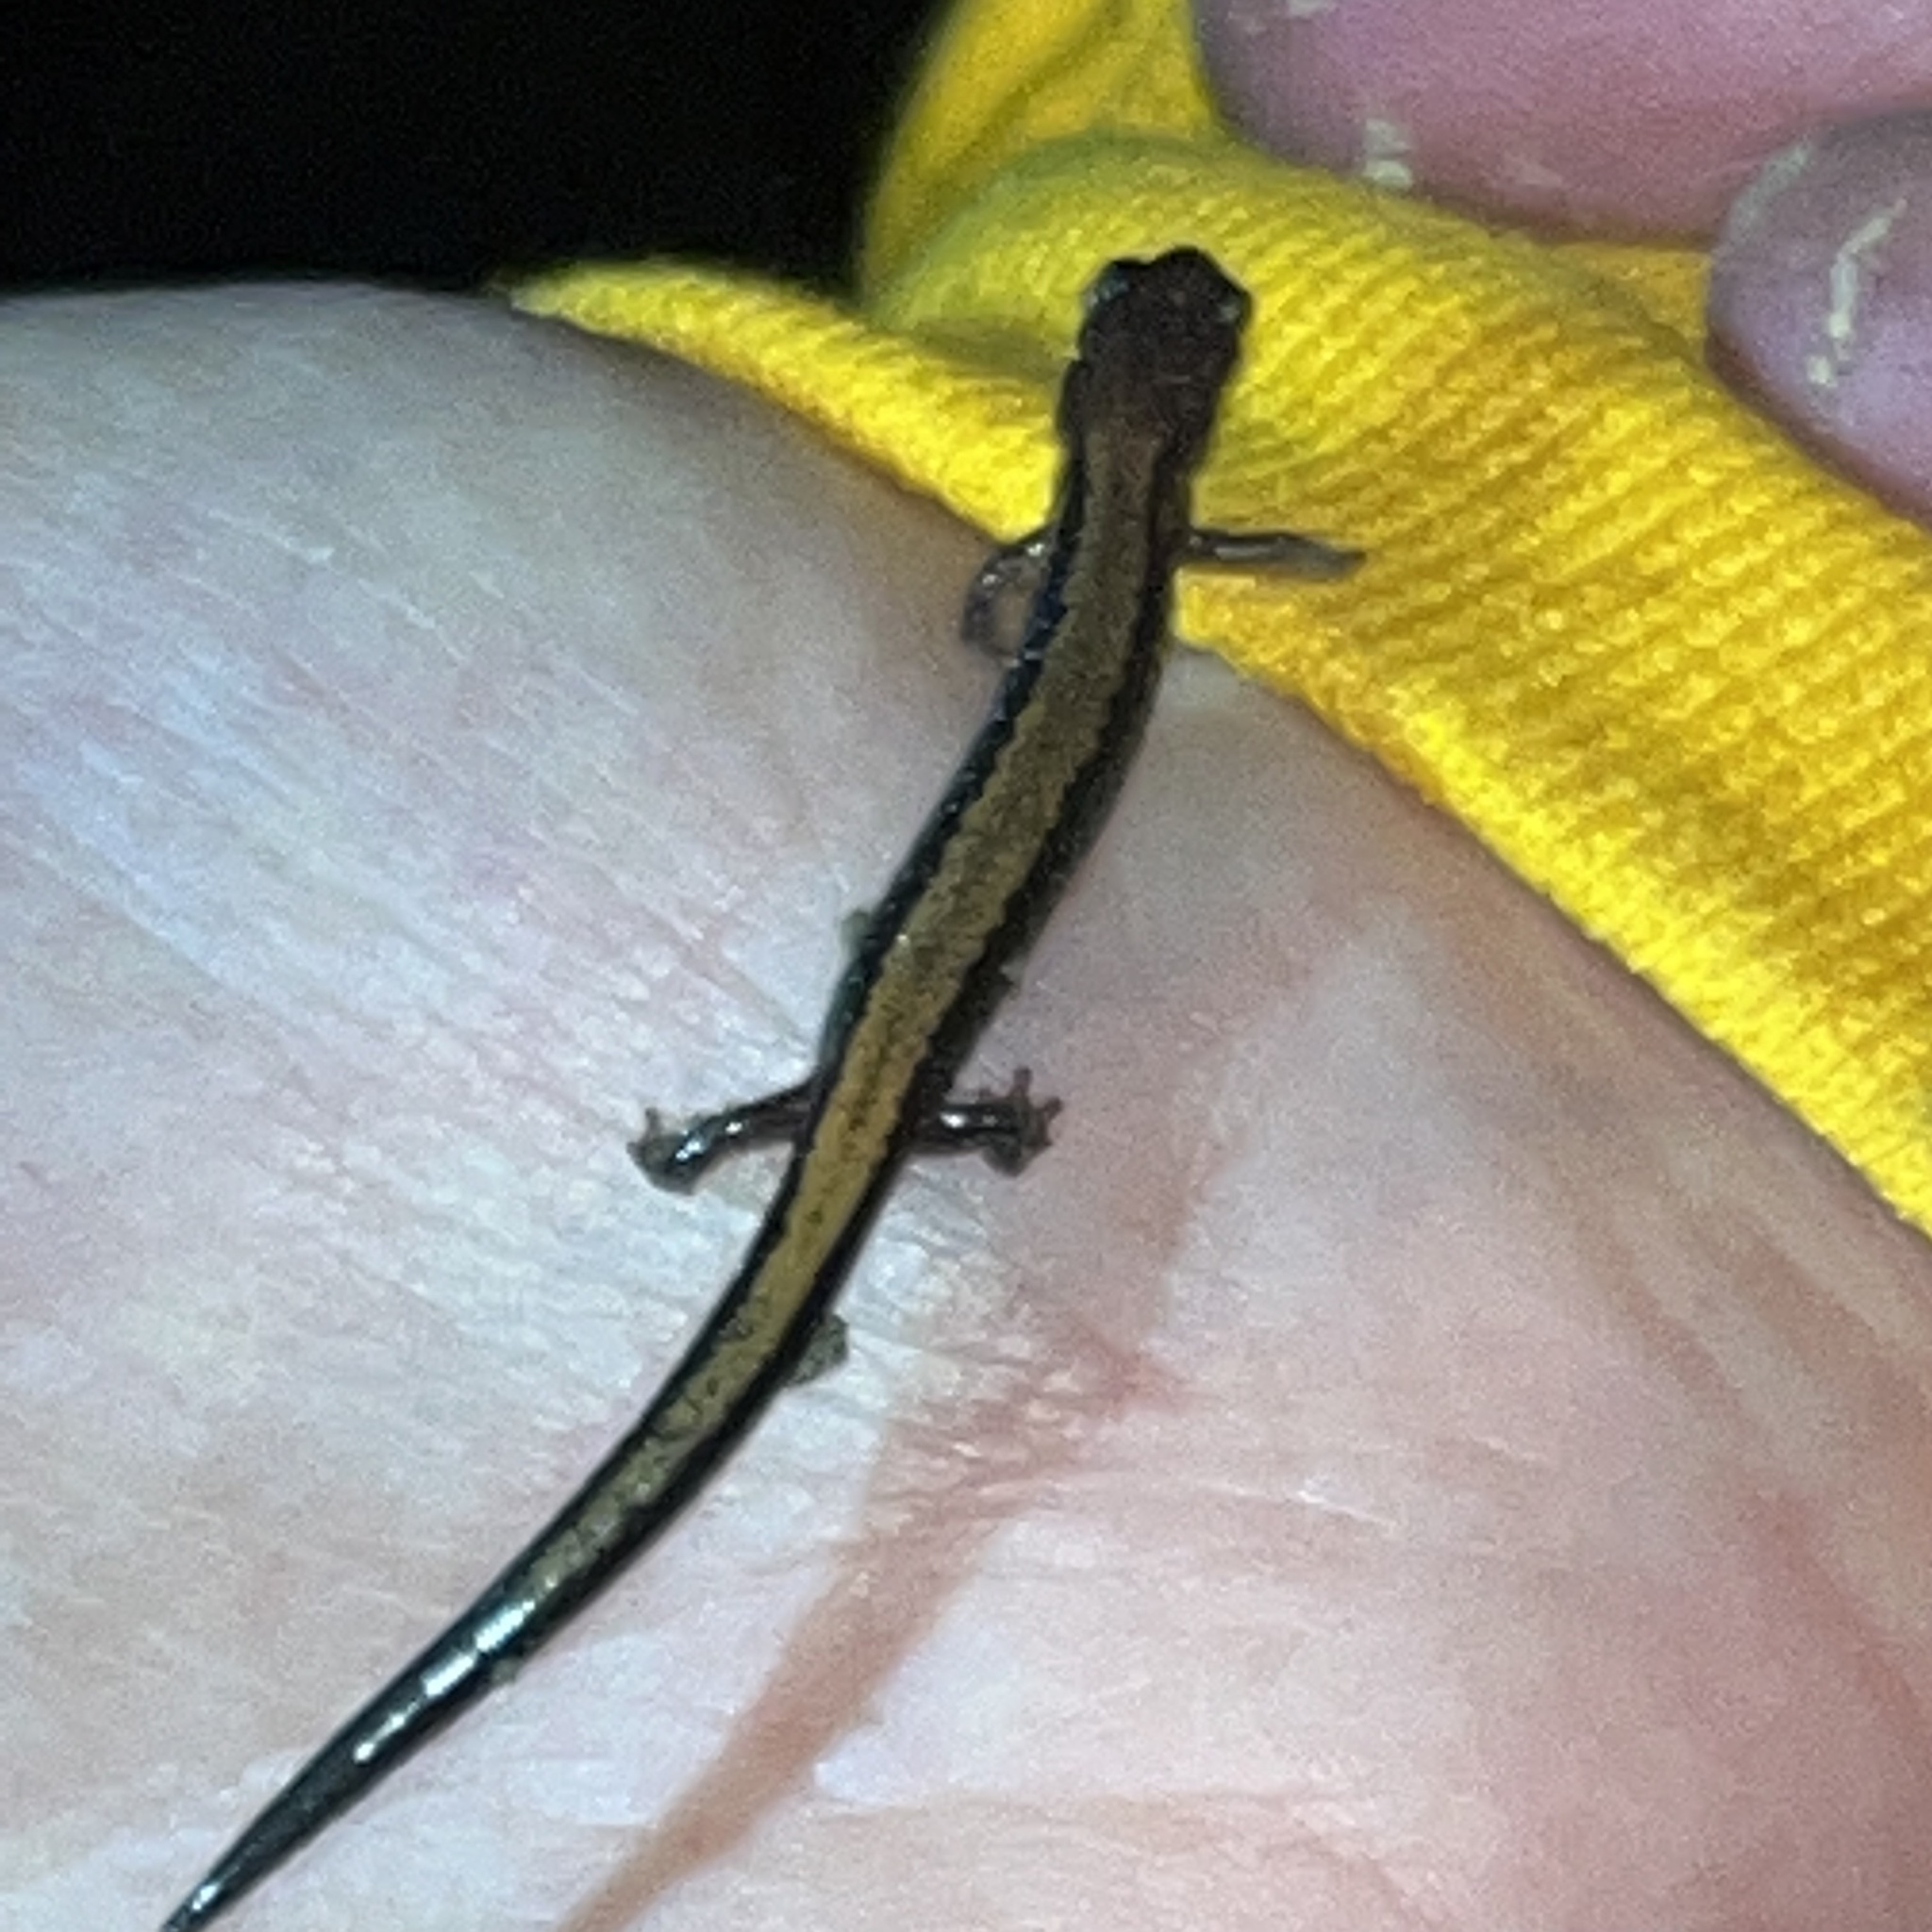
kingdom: Animalia
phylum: Chordata
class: Amphibia
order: Caudata
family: Plethodontidae
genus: Plethodon
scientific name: Plethodon cinereus
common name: Redback salamander
